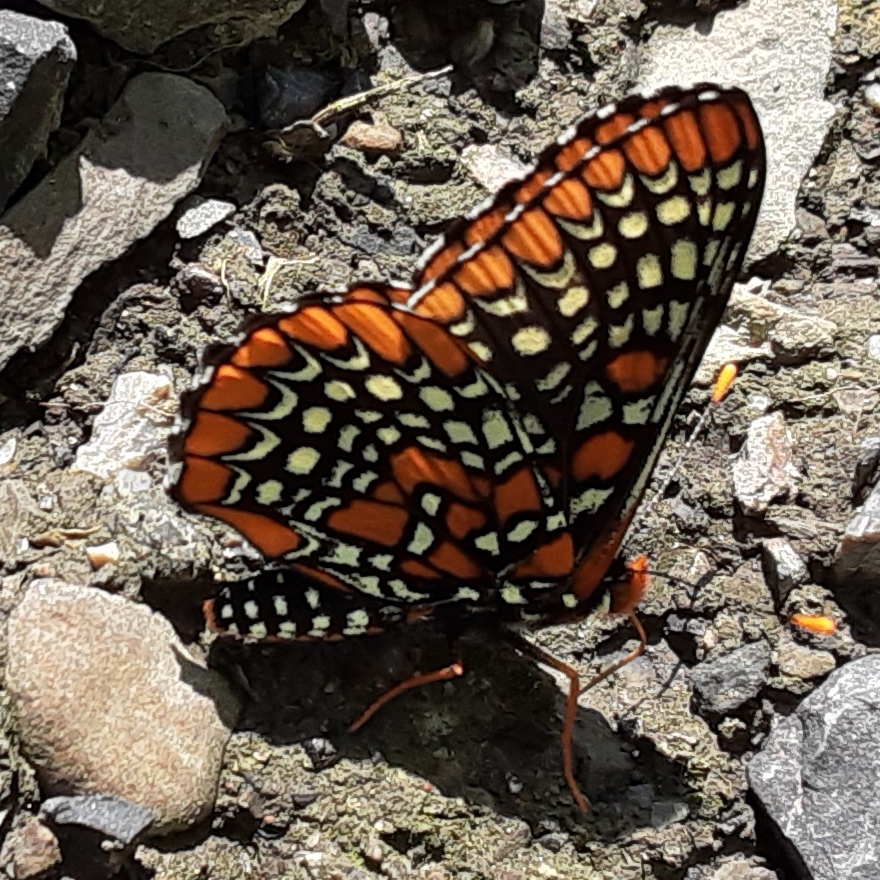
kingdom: Animalia
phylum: Arthropoda
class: Insecta
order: Lepidoptera
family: Nymphalidae
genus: Euphydryas
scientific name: Euphydryas phaeton
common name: Baltimore checkerspot
